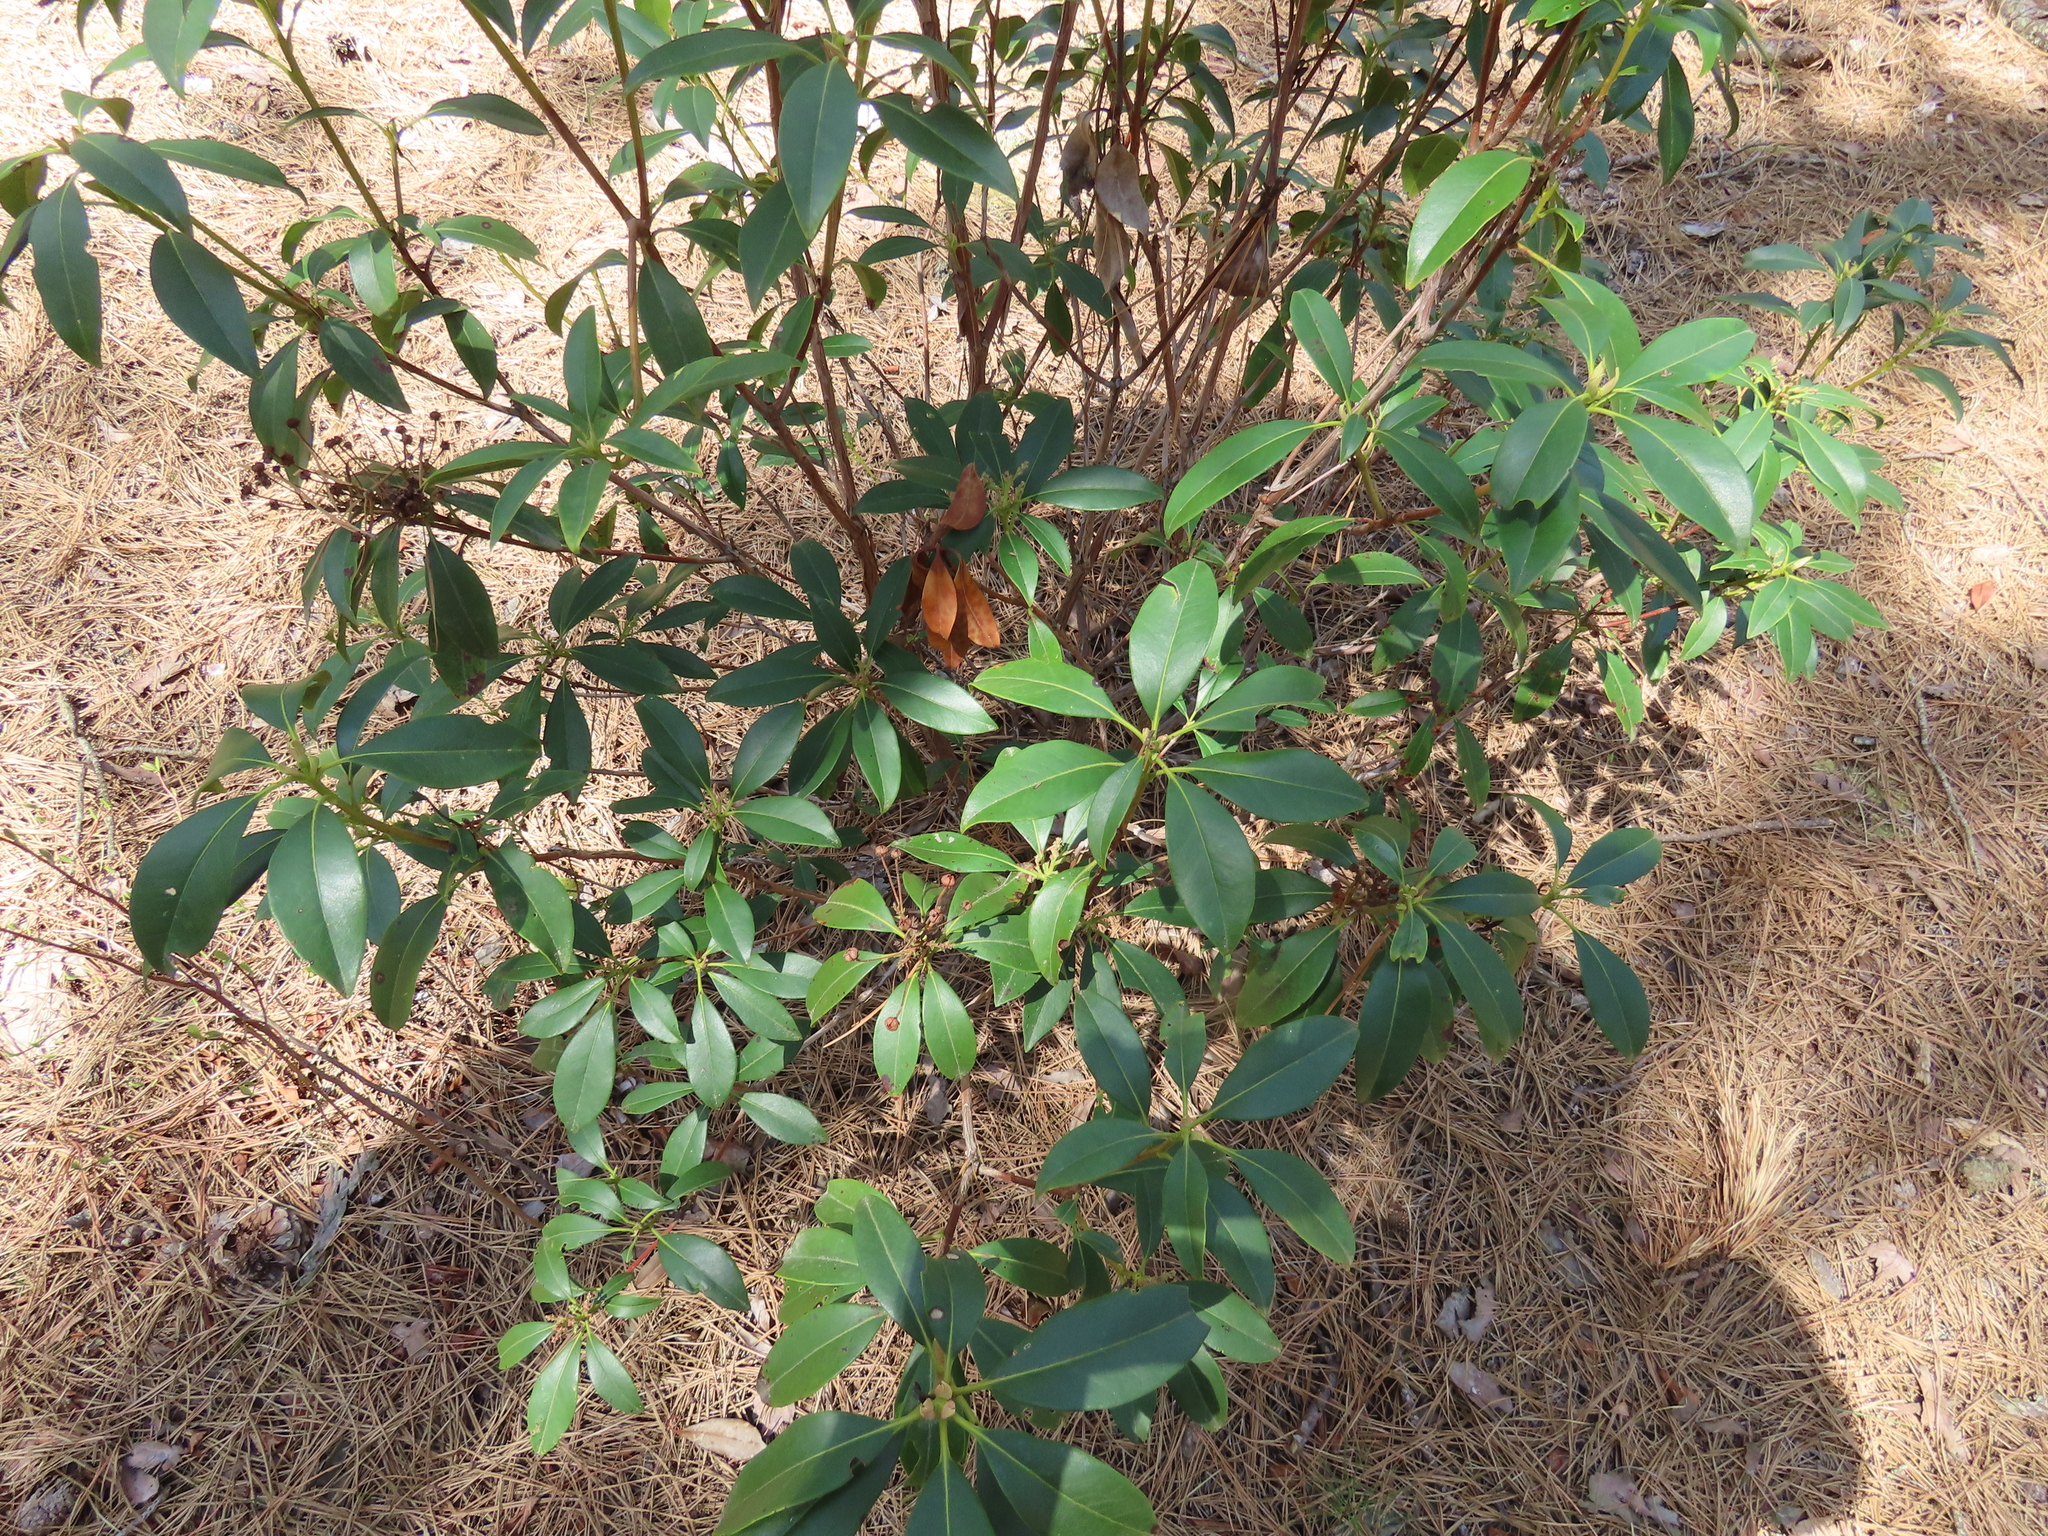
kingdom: Plantae
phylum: Tracheophyta
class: Magnoliopsida
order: Ericales
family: Ericaceae
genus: Kalmia
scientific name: Kalmia latifolia
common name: Mountain-laurel
